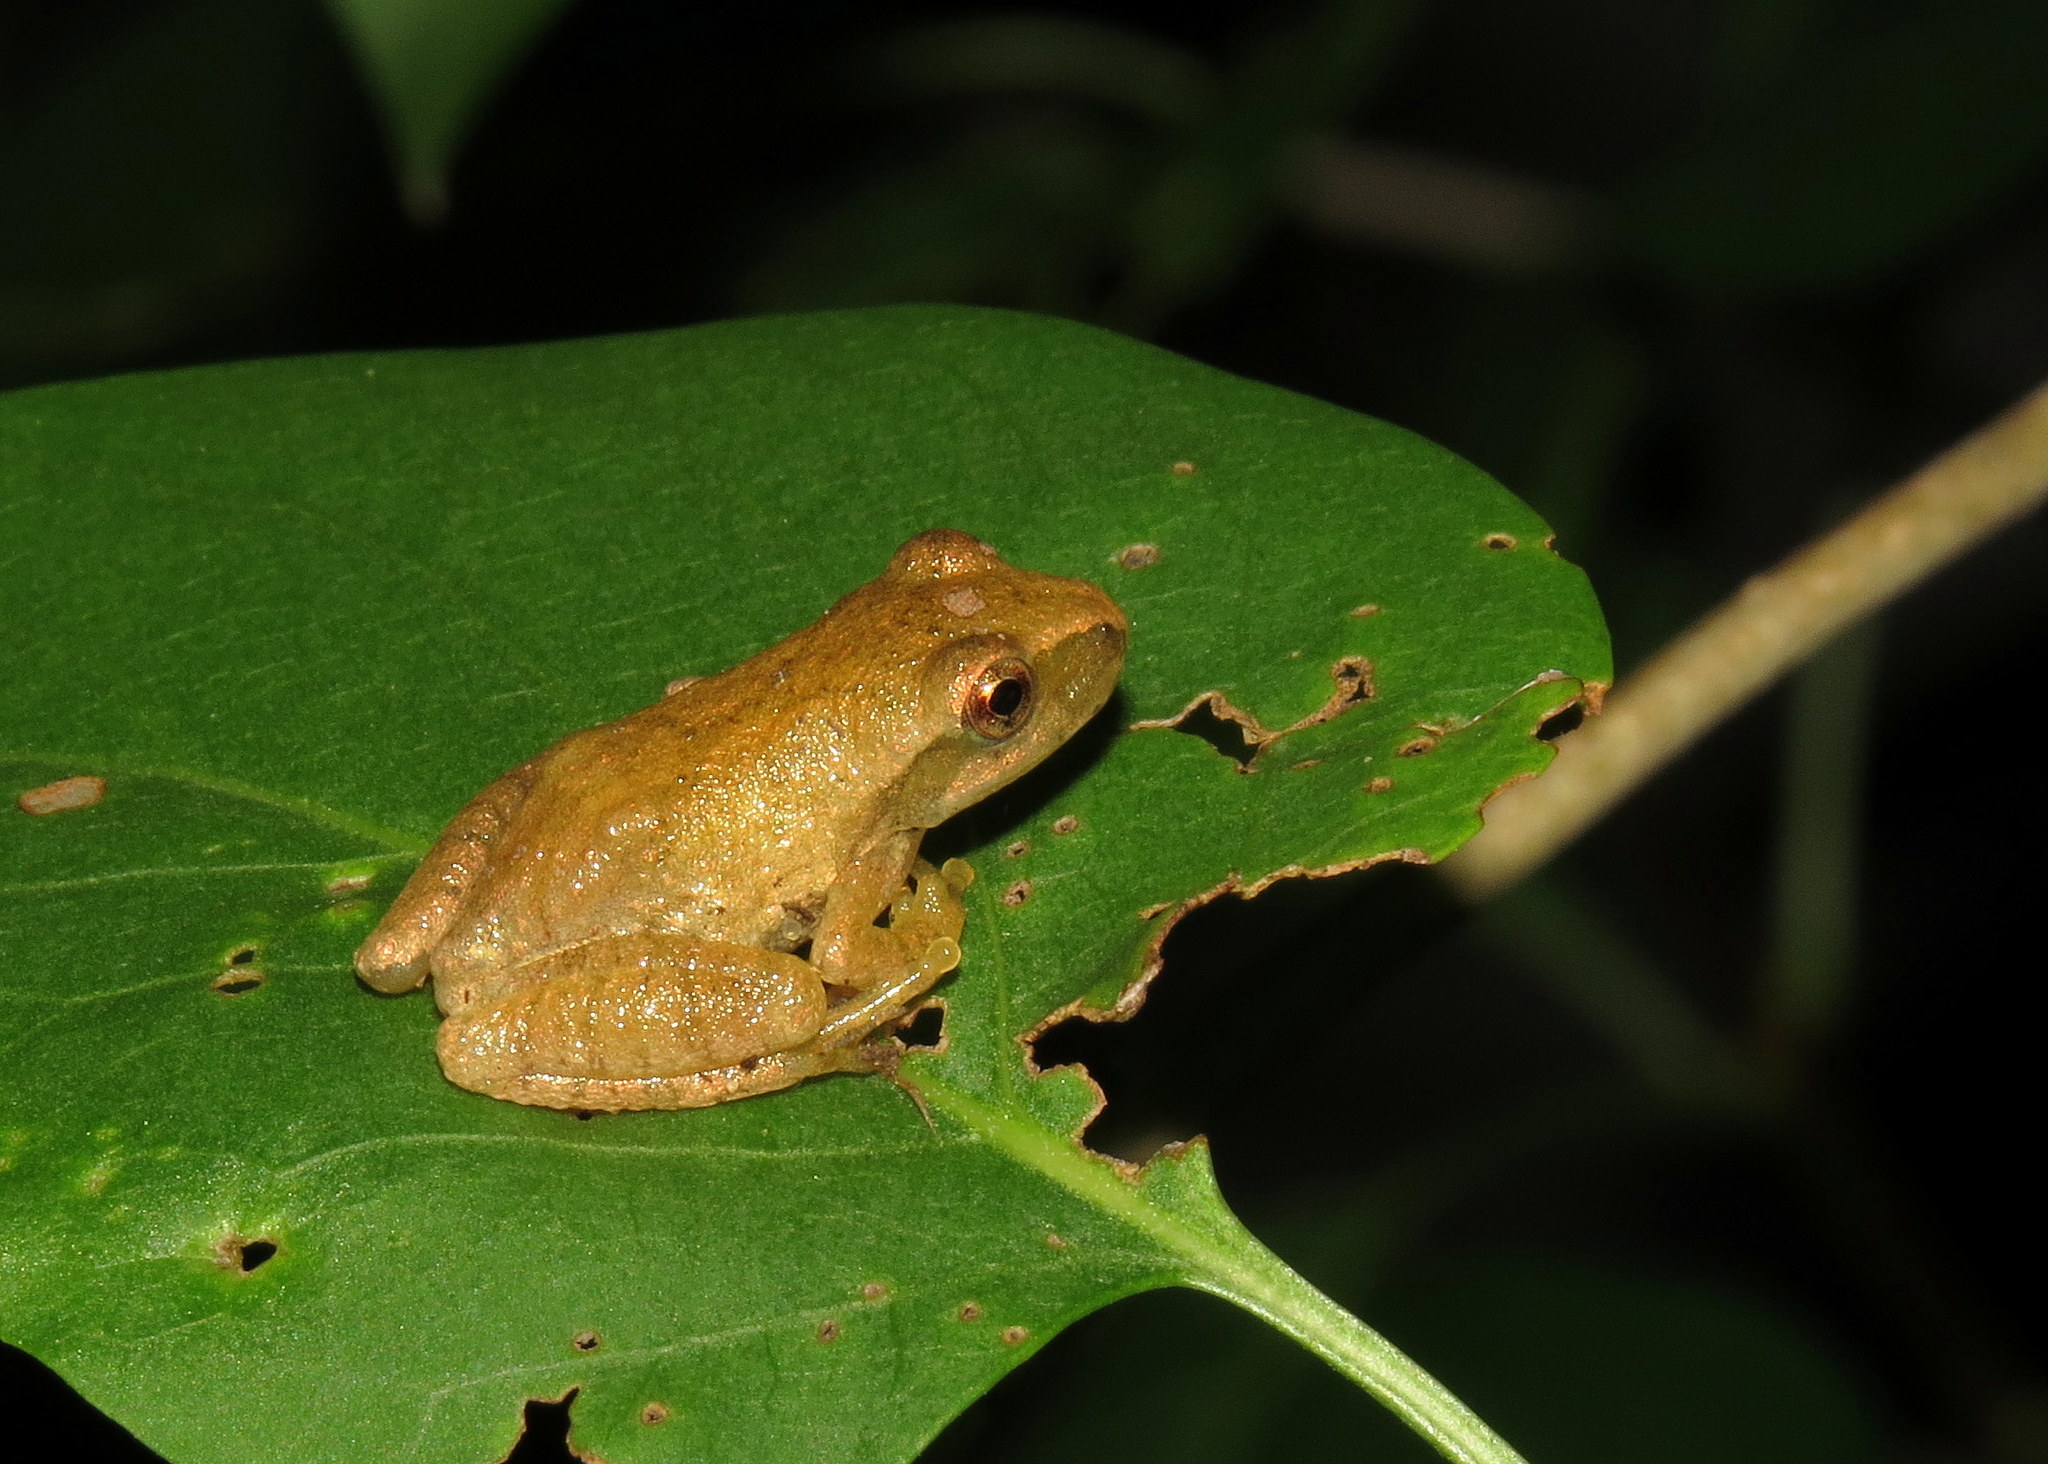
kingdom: Animalia
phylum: Chordata
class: Amphibia
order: Anura
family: Hylidae
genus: Pseudacris
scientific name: Pseudacris crucifer
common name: Spring peeper
